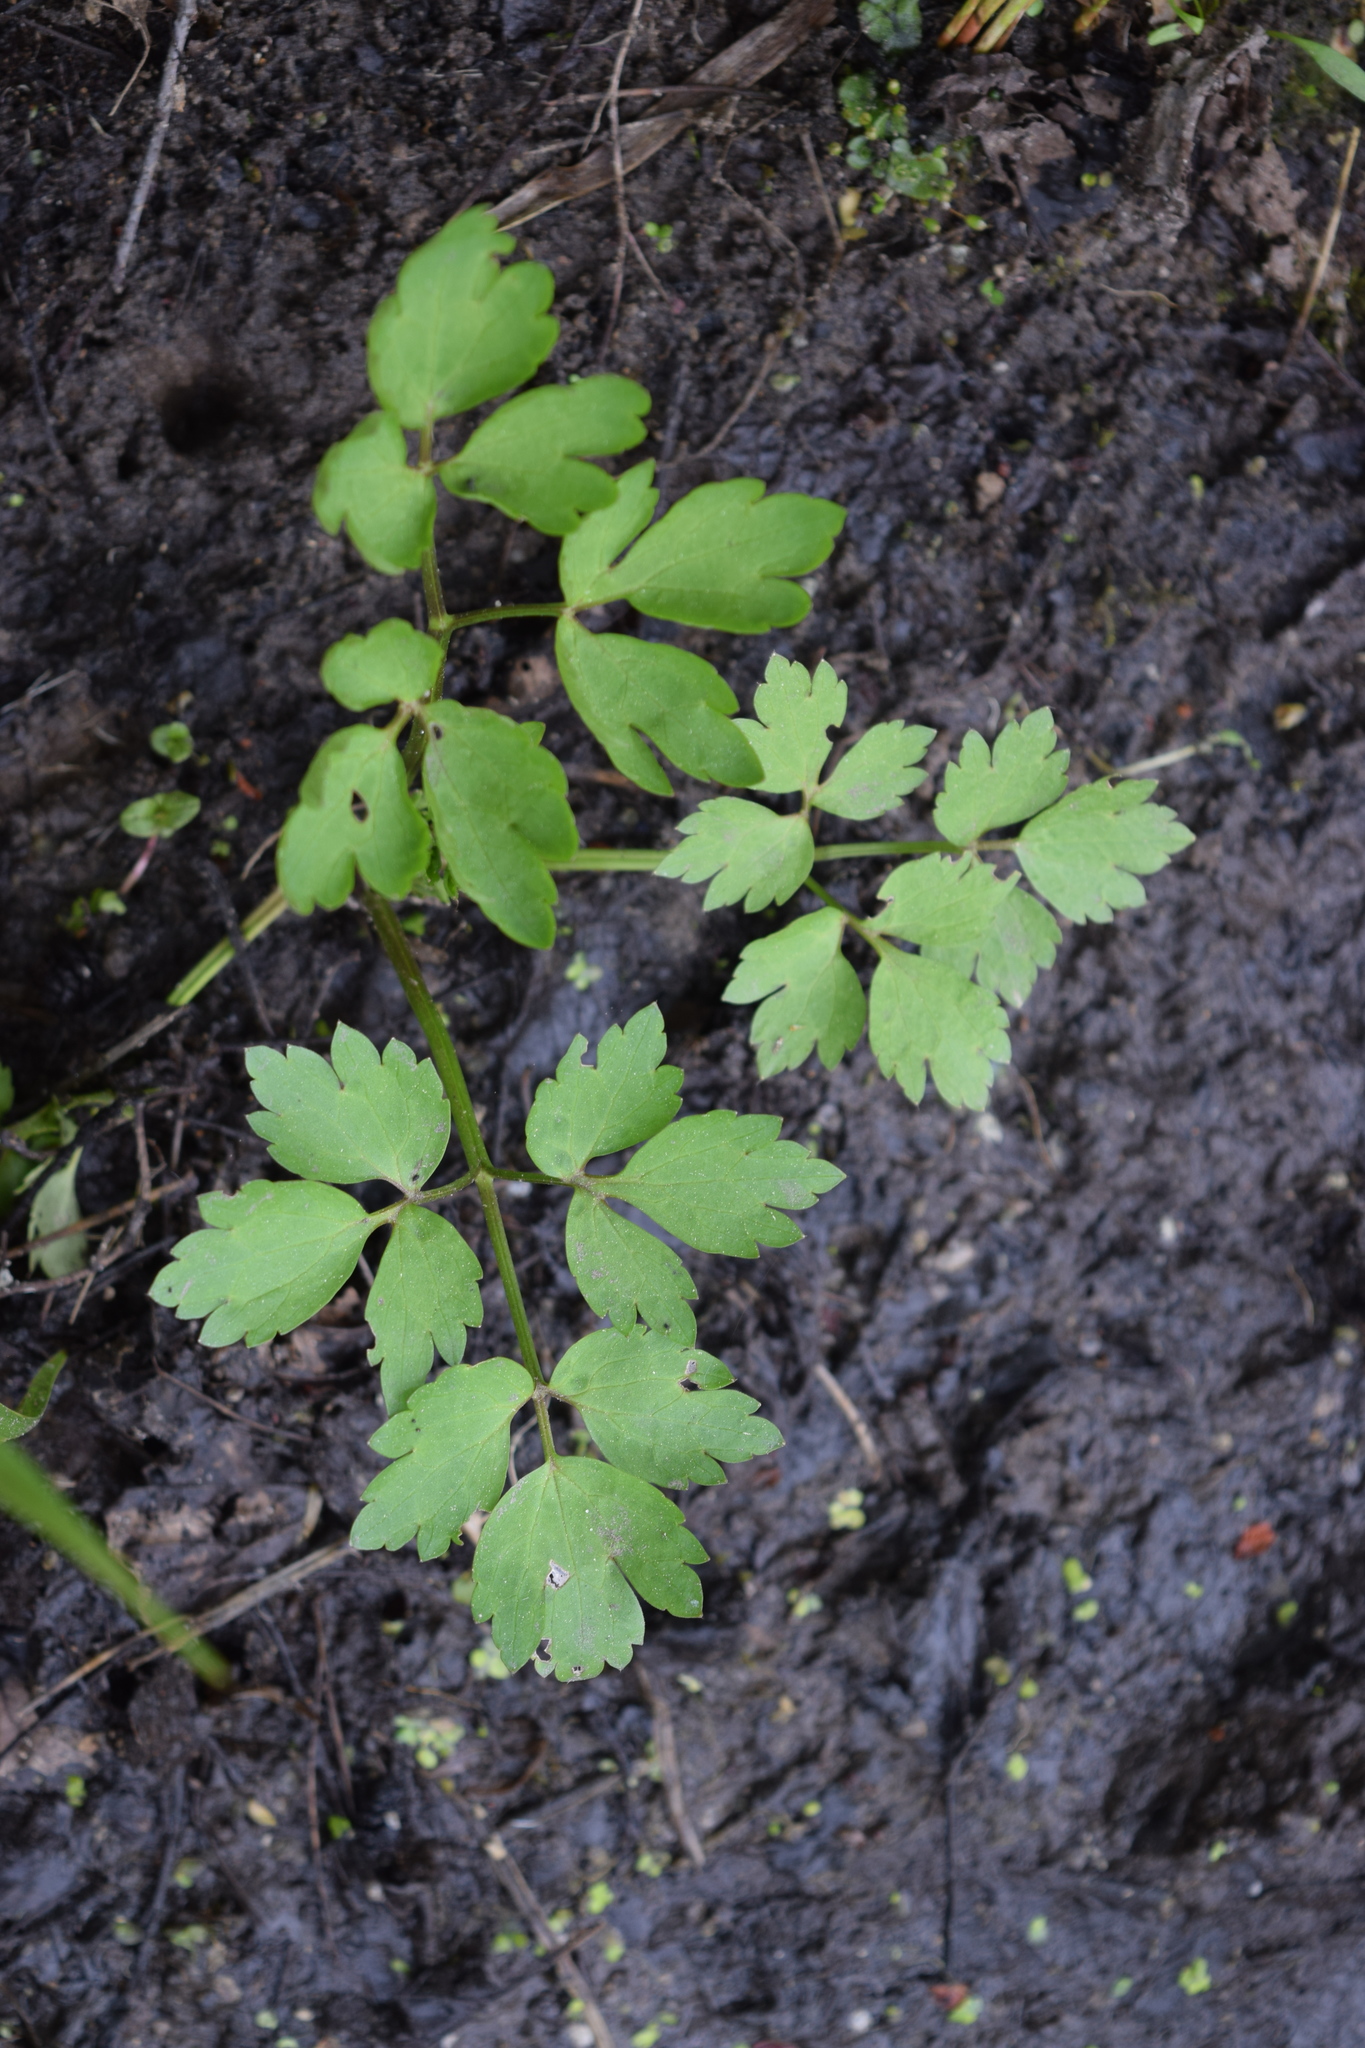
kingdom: Plantae
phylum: Tracheophyta
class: Magnoliopsida
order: Ranunculales
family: Ranunculaceae
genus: Ranunculus
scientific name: Ranunculus repens
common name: Creeping buttercup
